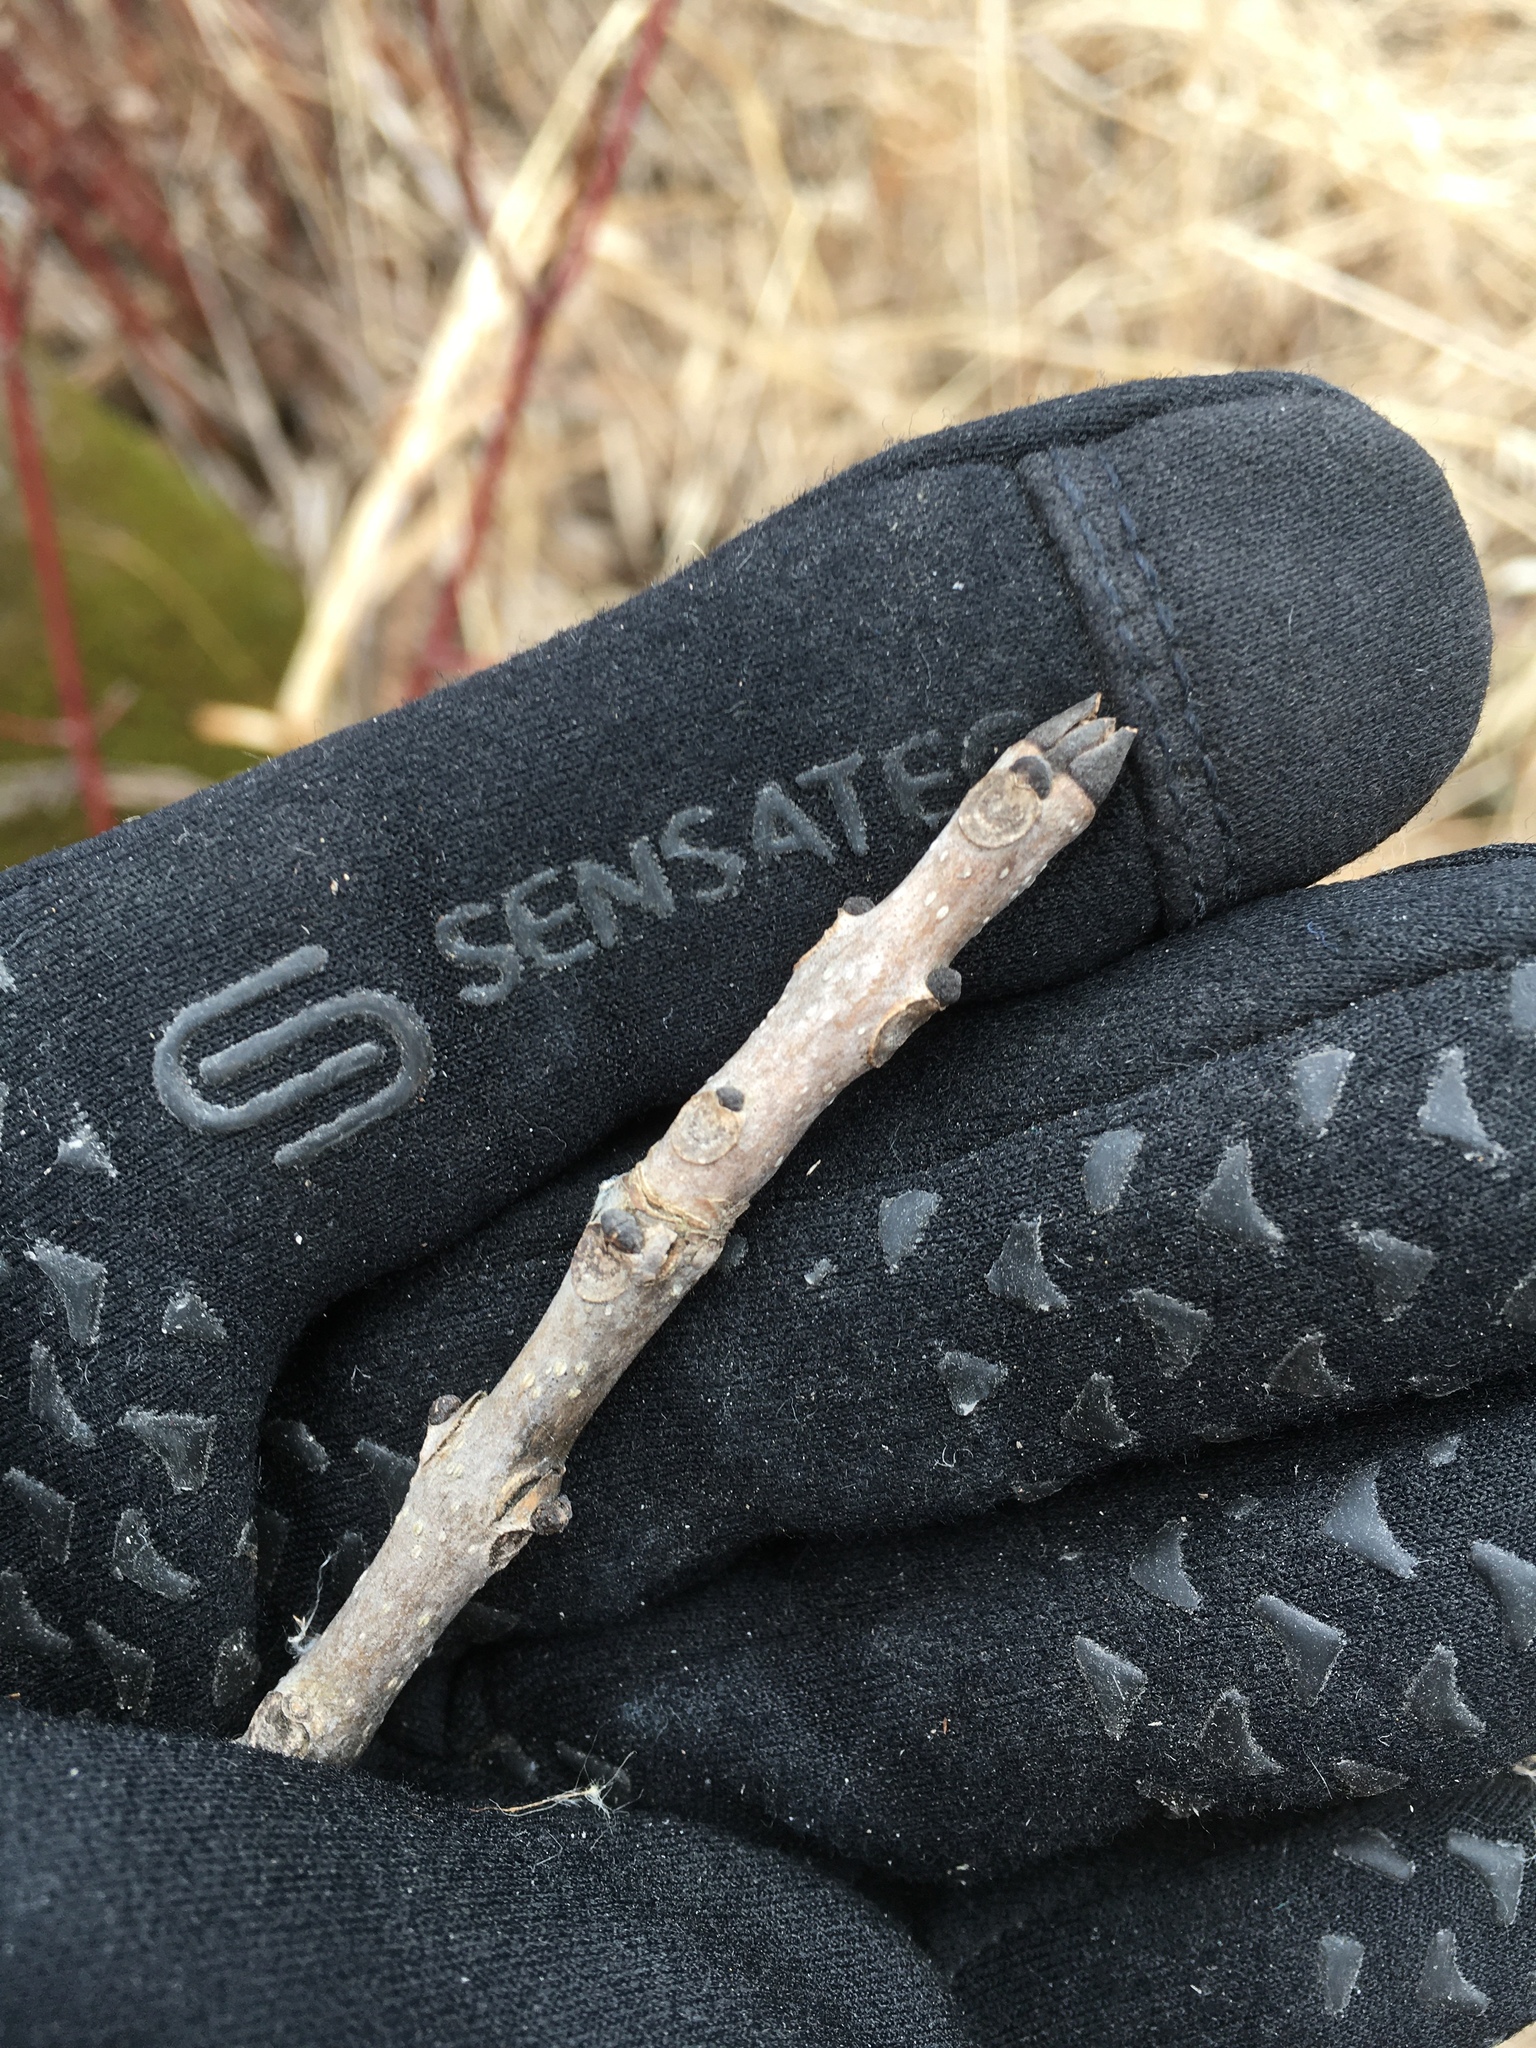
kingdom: Plantae
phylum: Tracheophyta
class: Magnoliopsida
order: Lamiales
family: Oleaceae
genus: Fraxinus
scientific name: Fraxinus nigra
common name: Black ash
